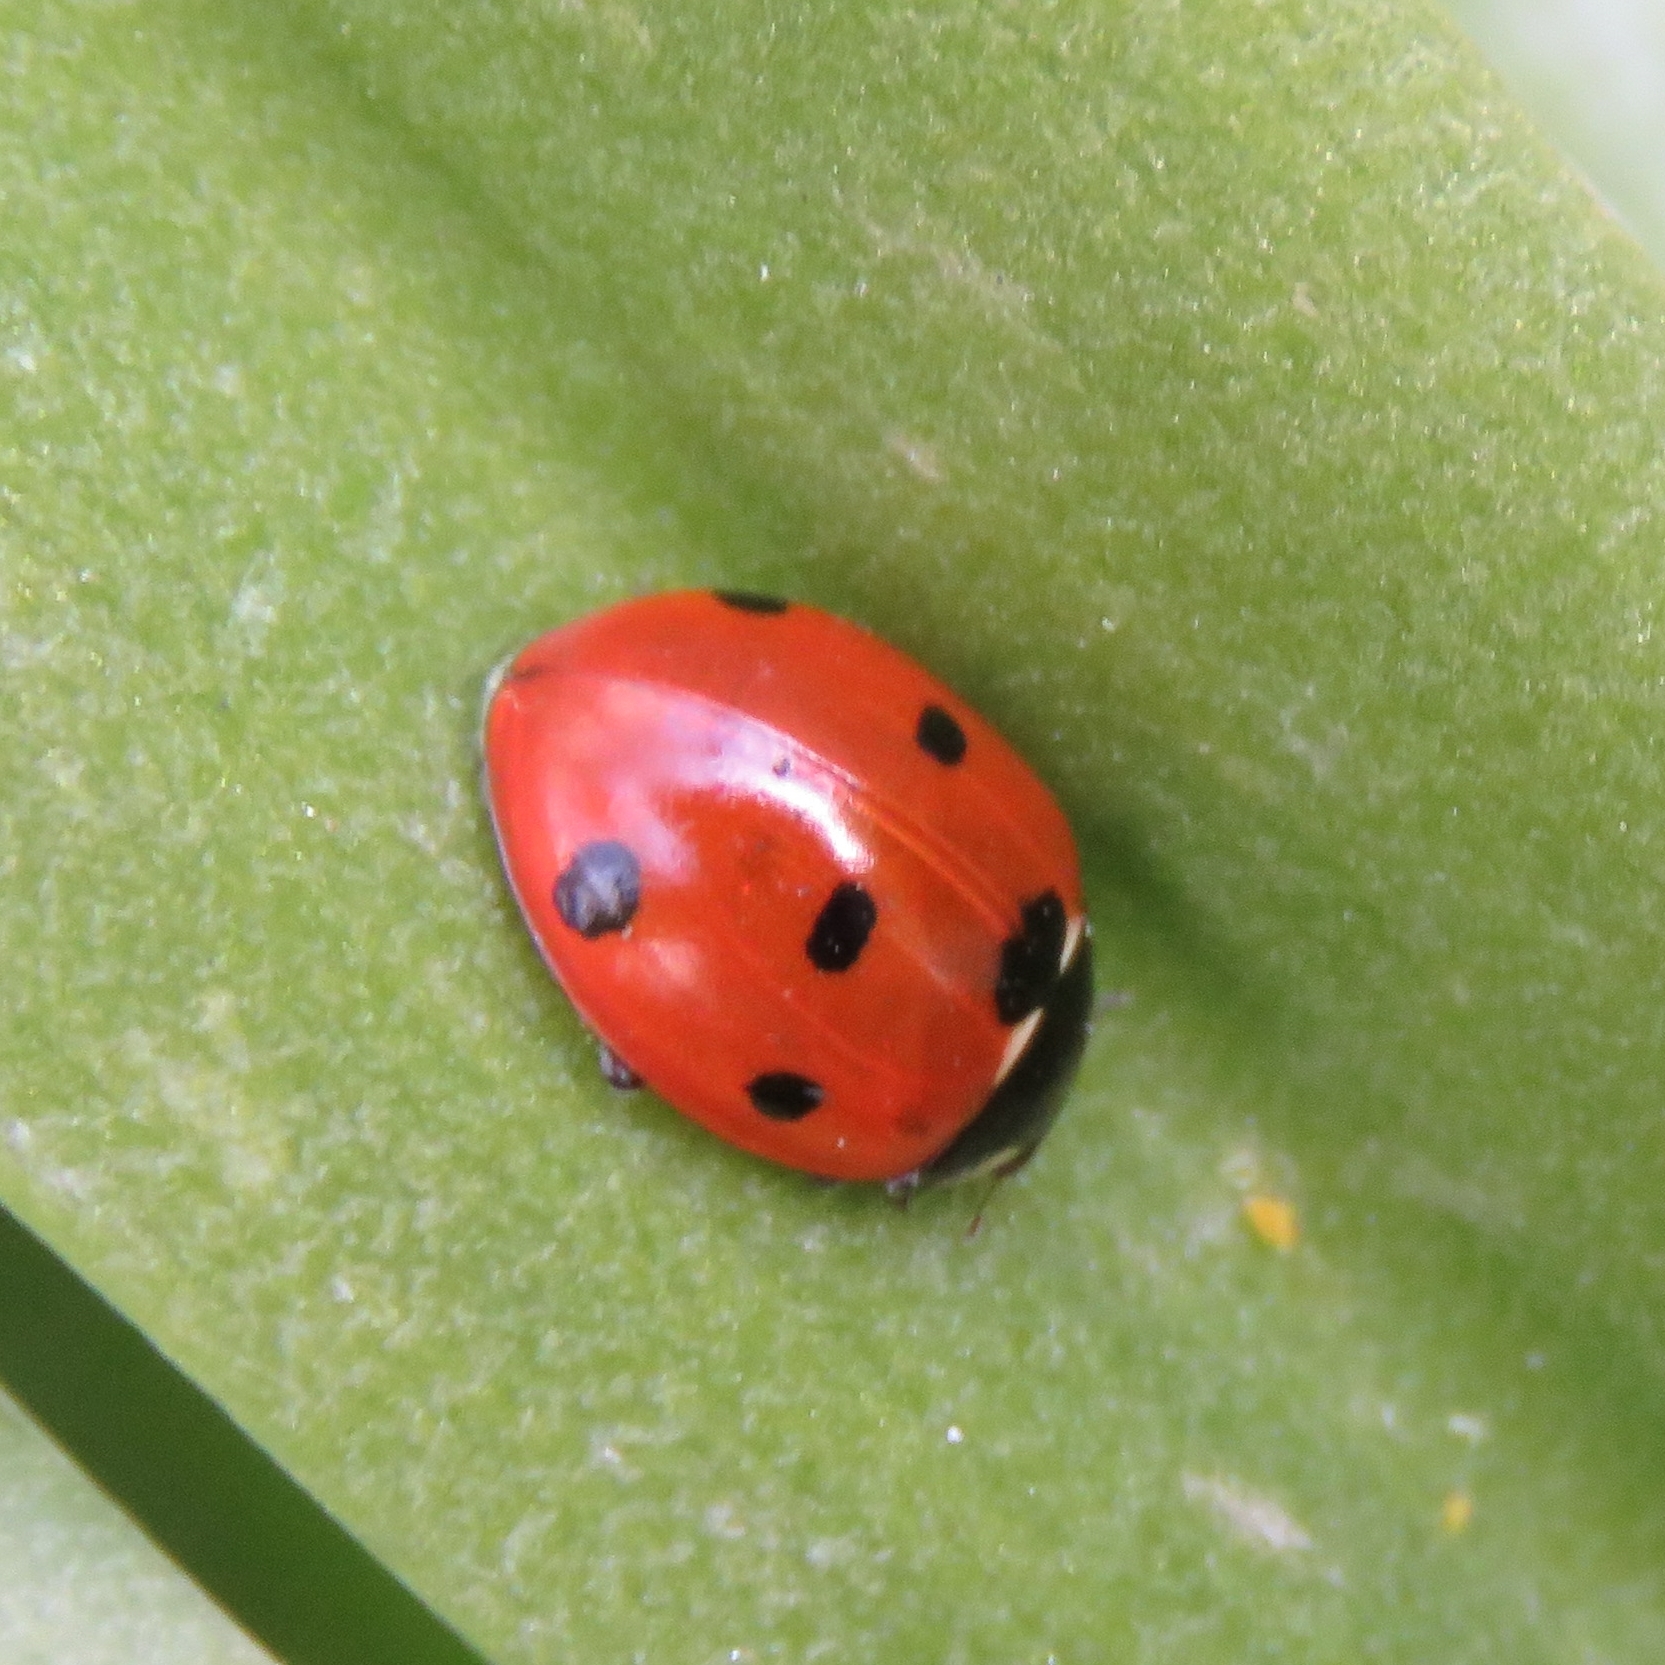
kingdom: Animalia
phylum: Arthropoda
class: Insecta
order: Coleoptera
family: Coccinellidae
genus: Coccinella
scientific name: Coccinella septempunctata
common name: Sevenspotted lady beetle
